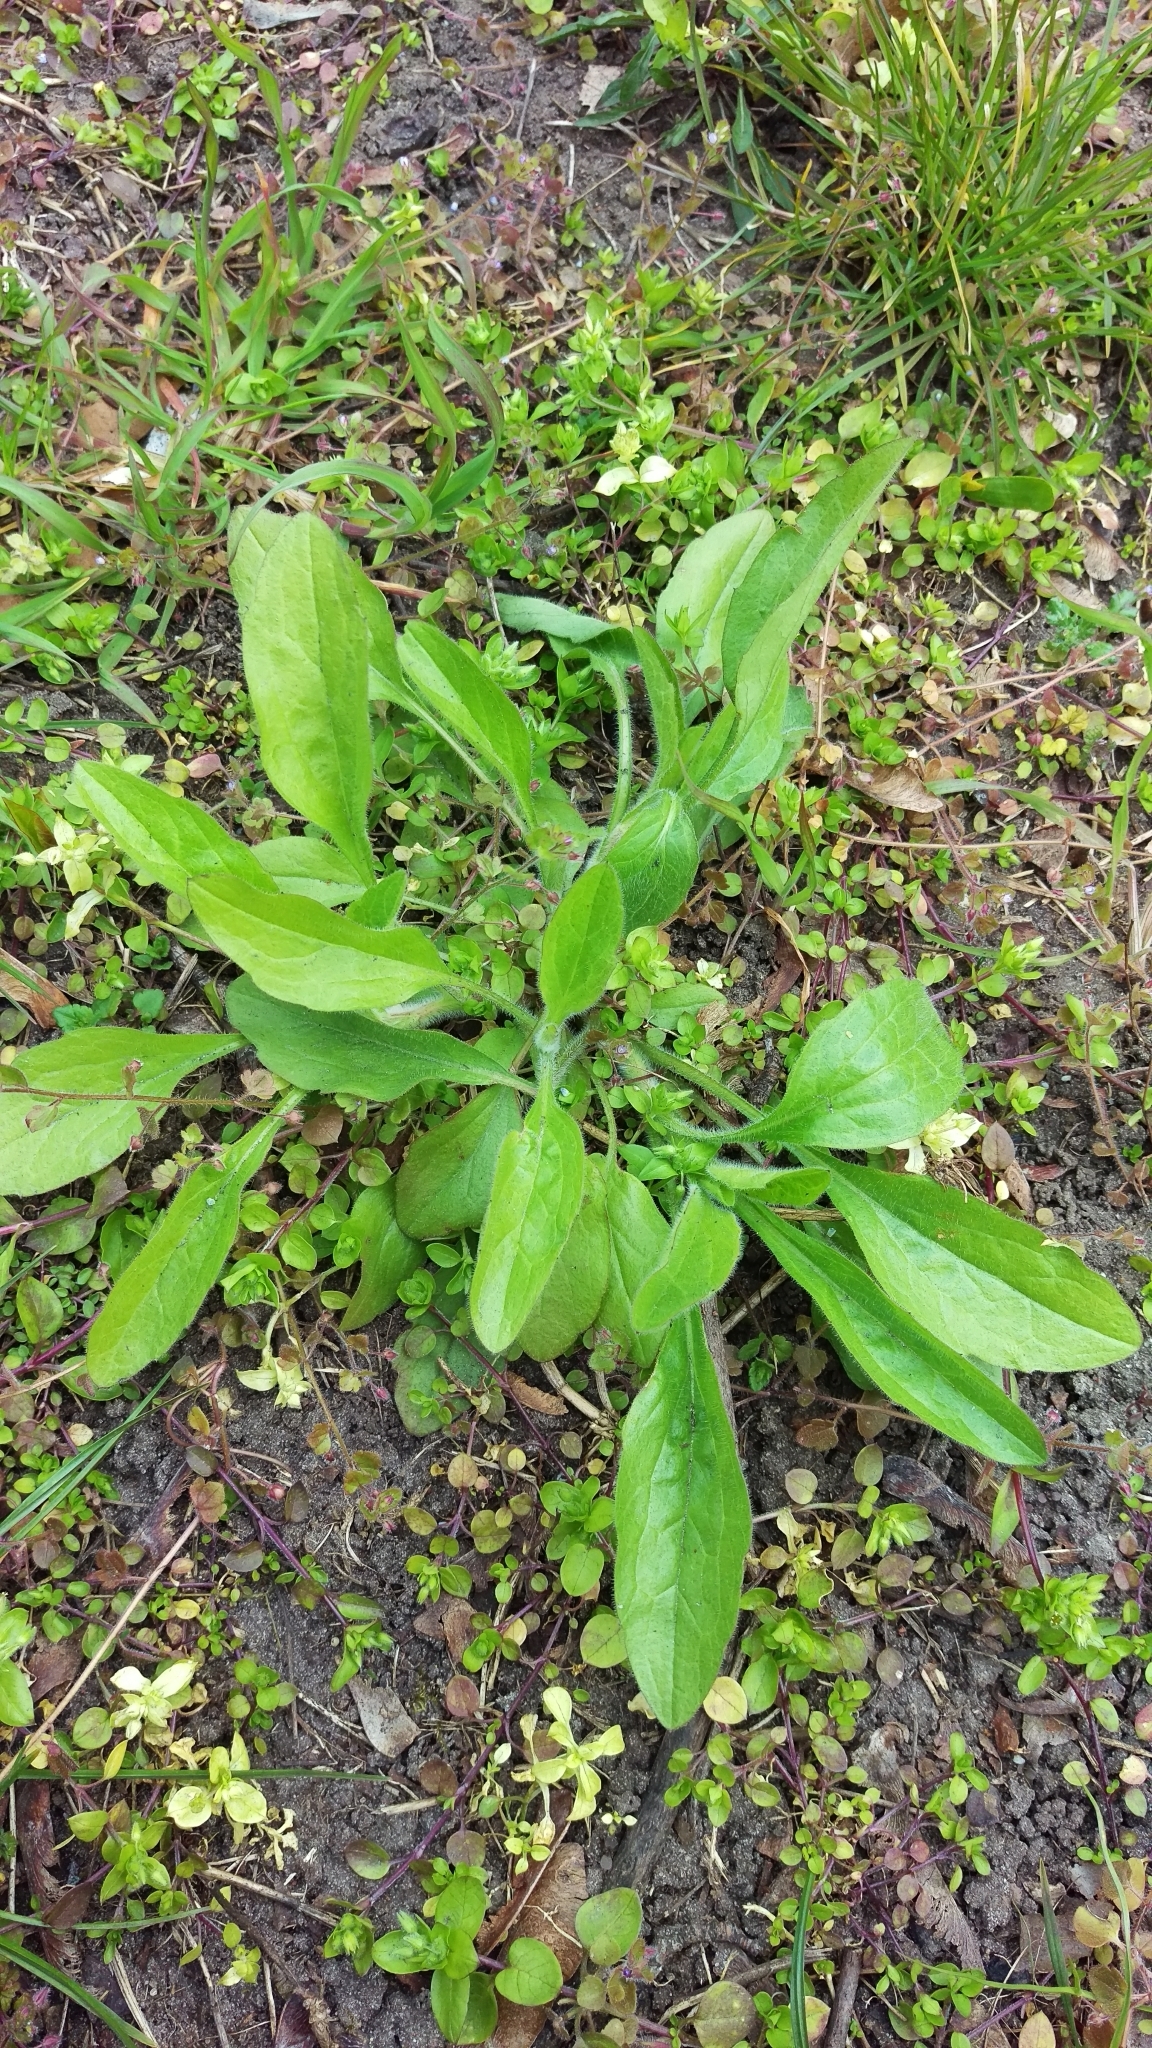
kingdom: Plantae
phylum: Tracheophyta
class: Magnoliopsida
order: Caryophyllales
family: Caryophyllaceae
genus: Stellaria
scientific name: Stellaria media
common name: Common chickweed
